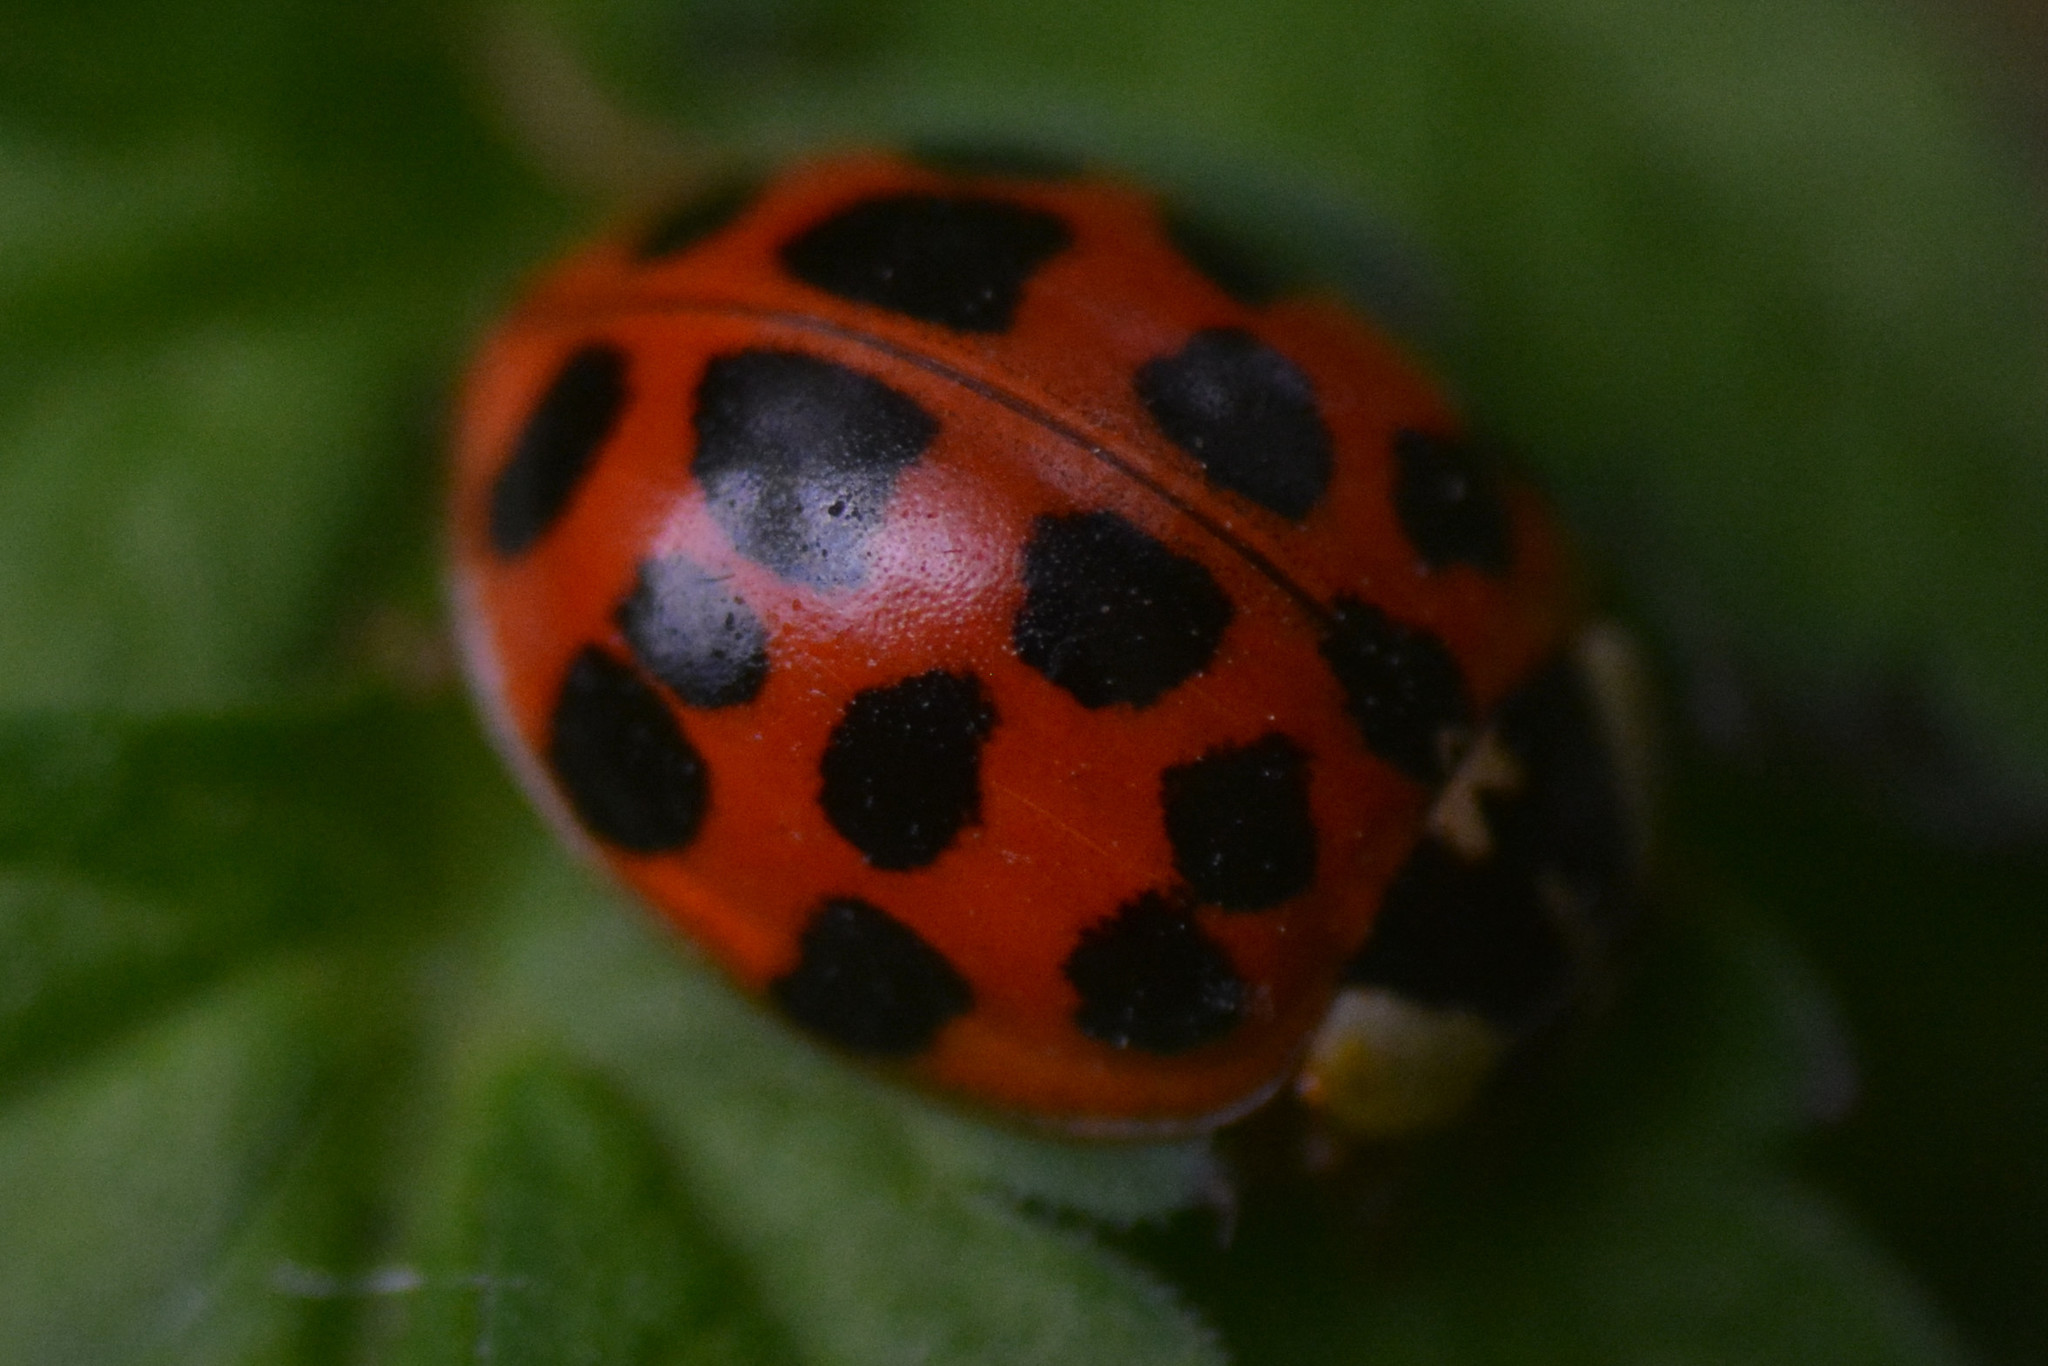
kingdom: Animalia
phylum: Arthropoda
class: Insecta
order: Coleoptera
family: Coccinellidae
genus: Harmonia
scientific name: Harmonia axyridis
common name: Harlequin ladybird
